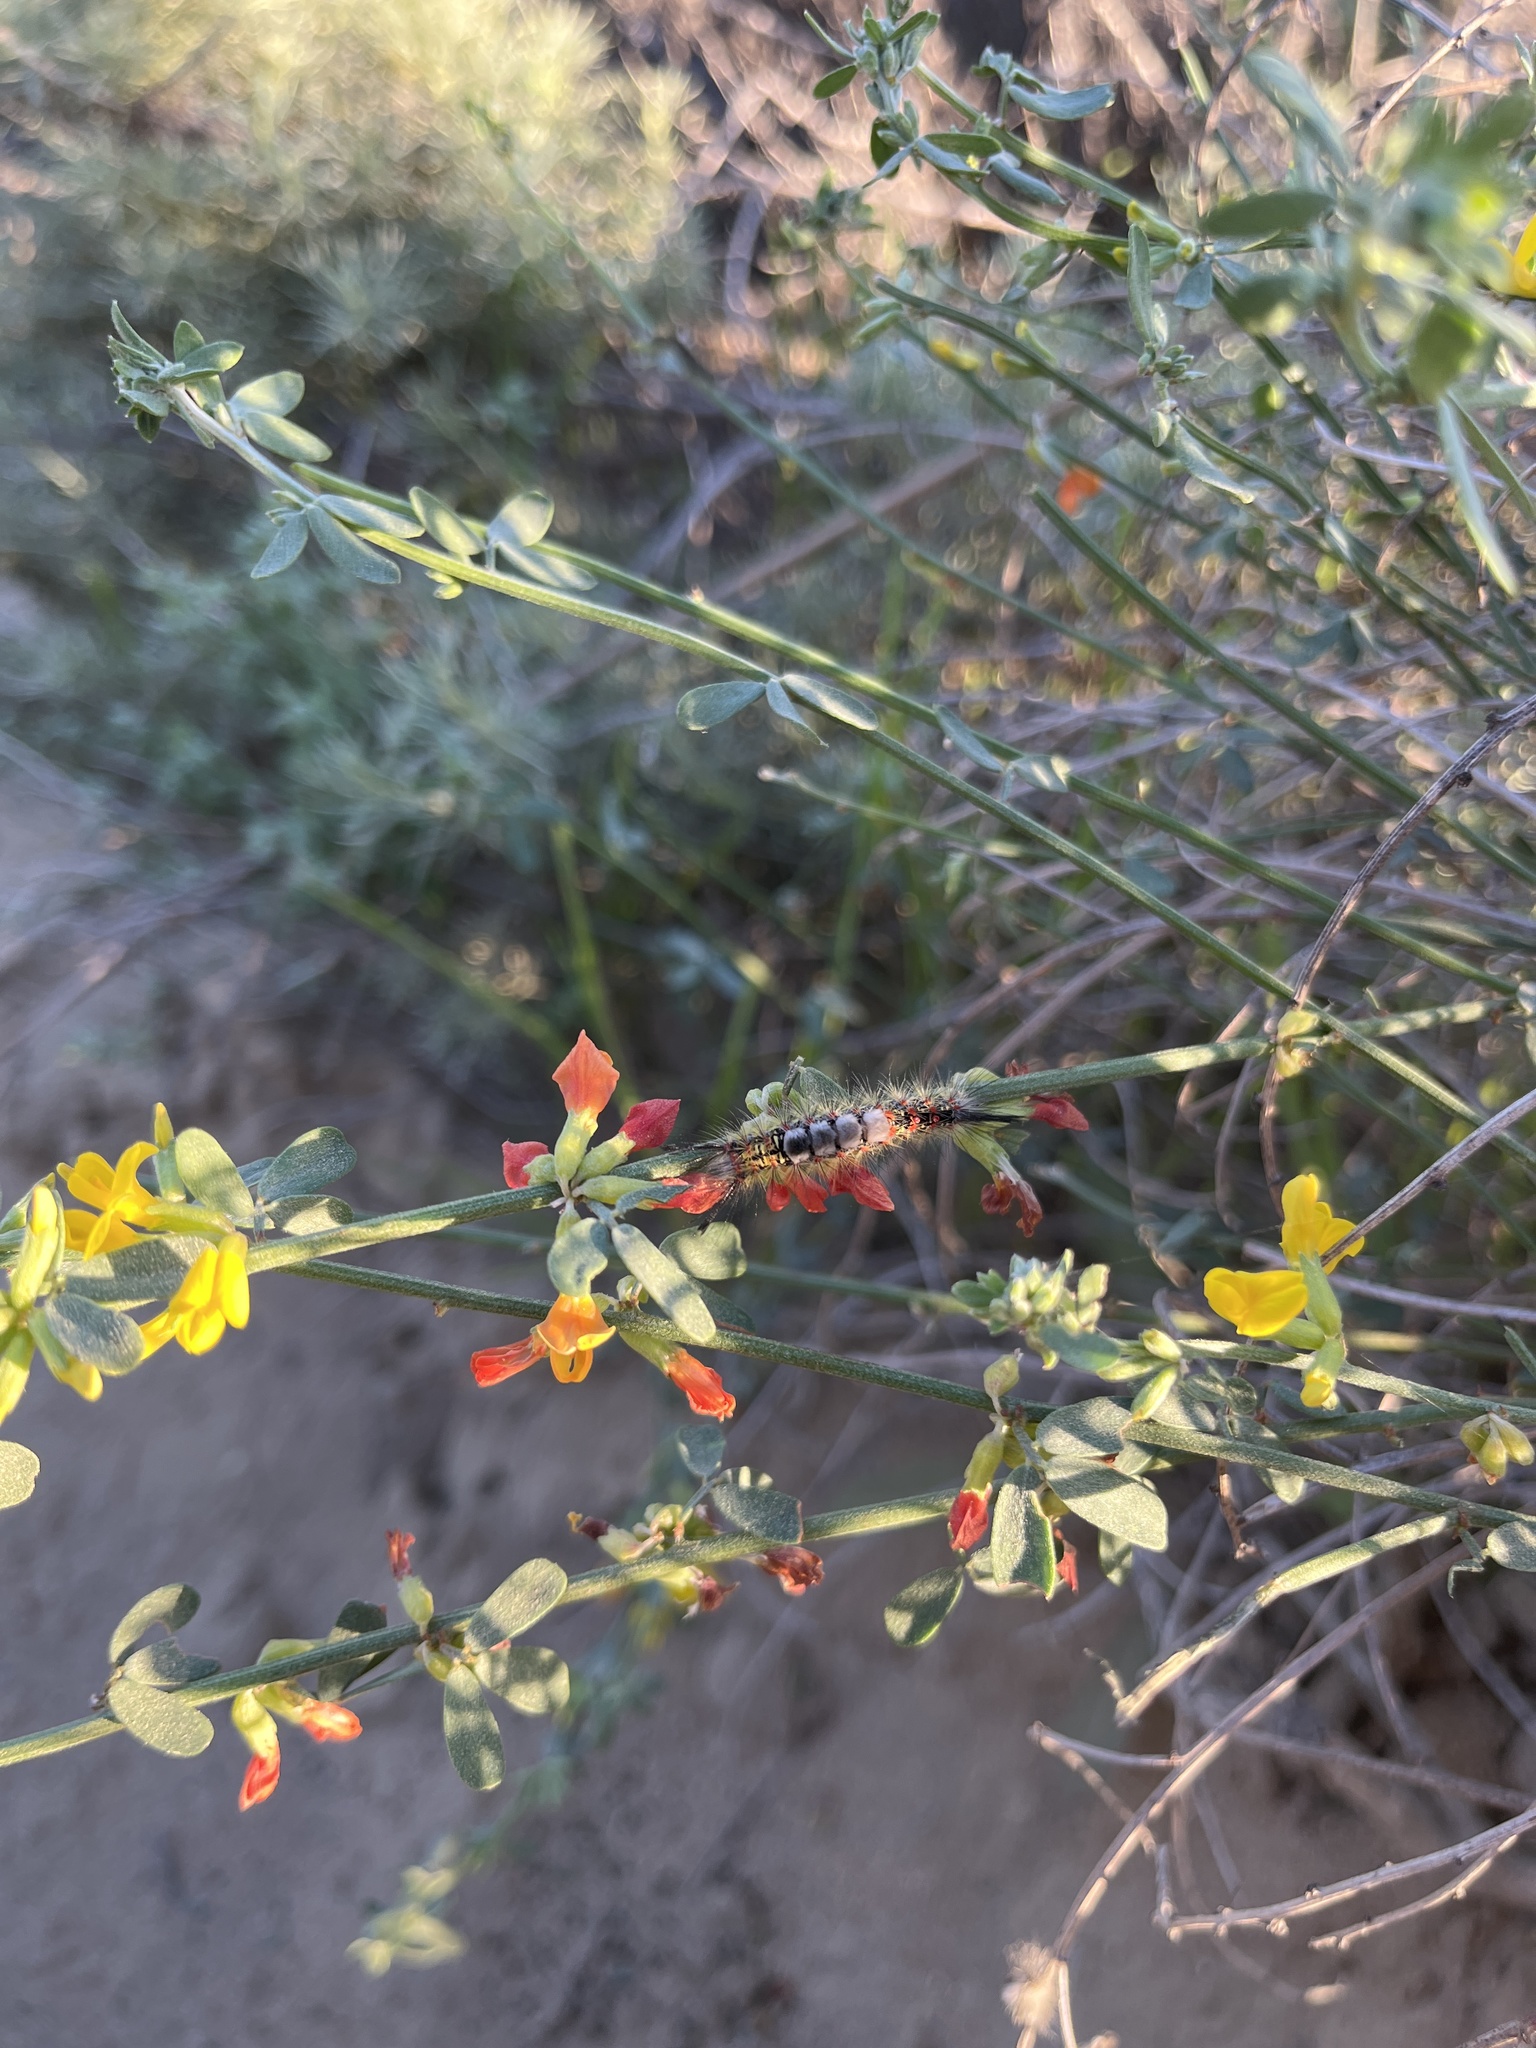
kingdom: Animalia
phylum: Arthropoda
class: Insecta
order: Lepidoptera
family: Erebidae
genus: Orgyia
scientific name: Orgyia vetusta
